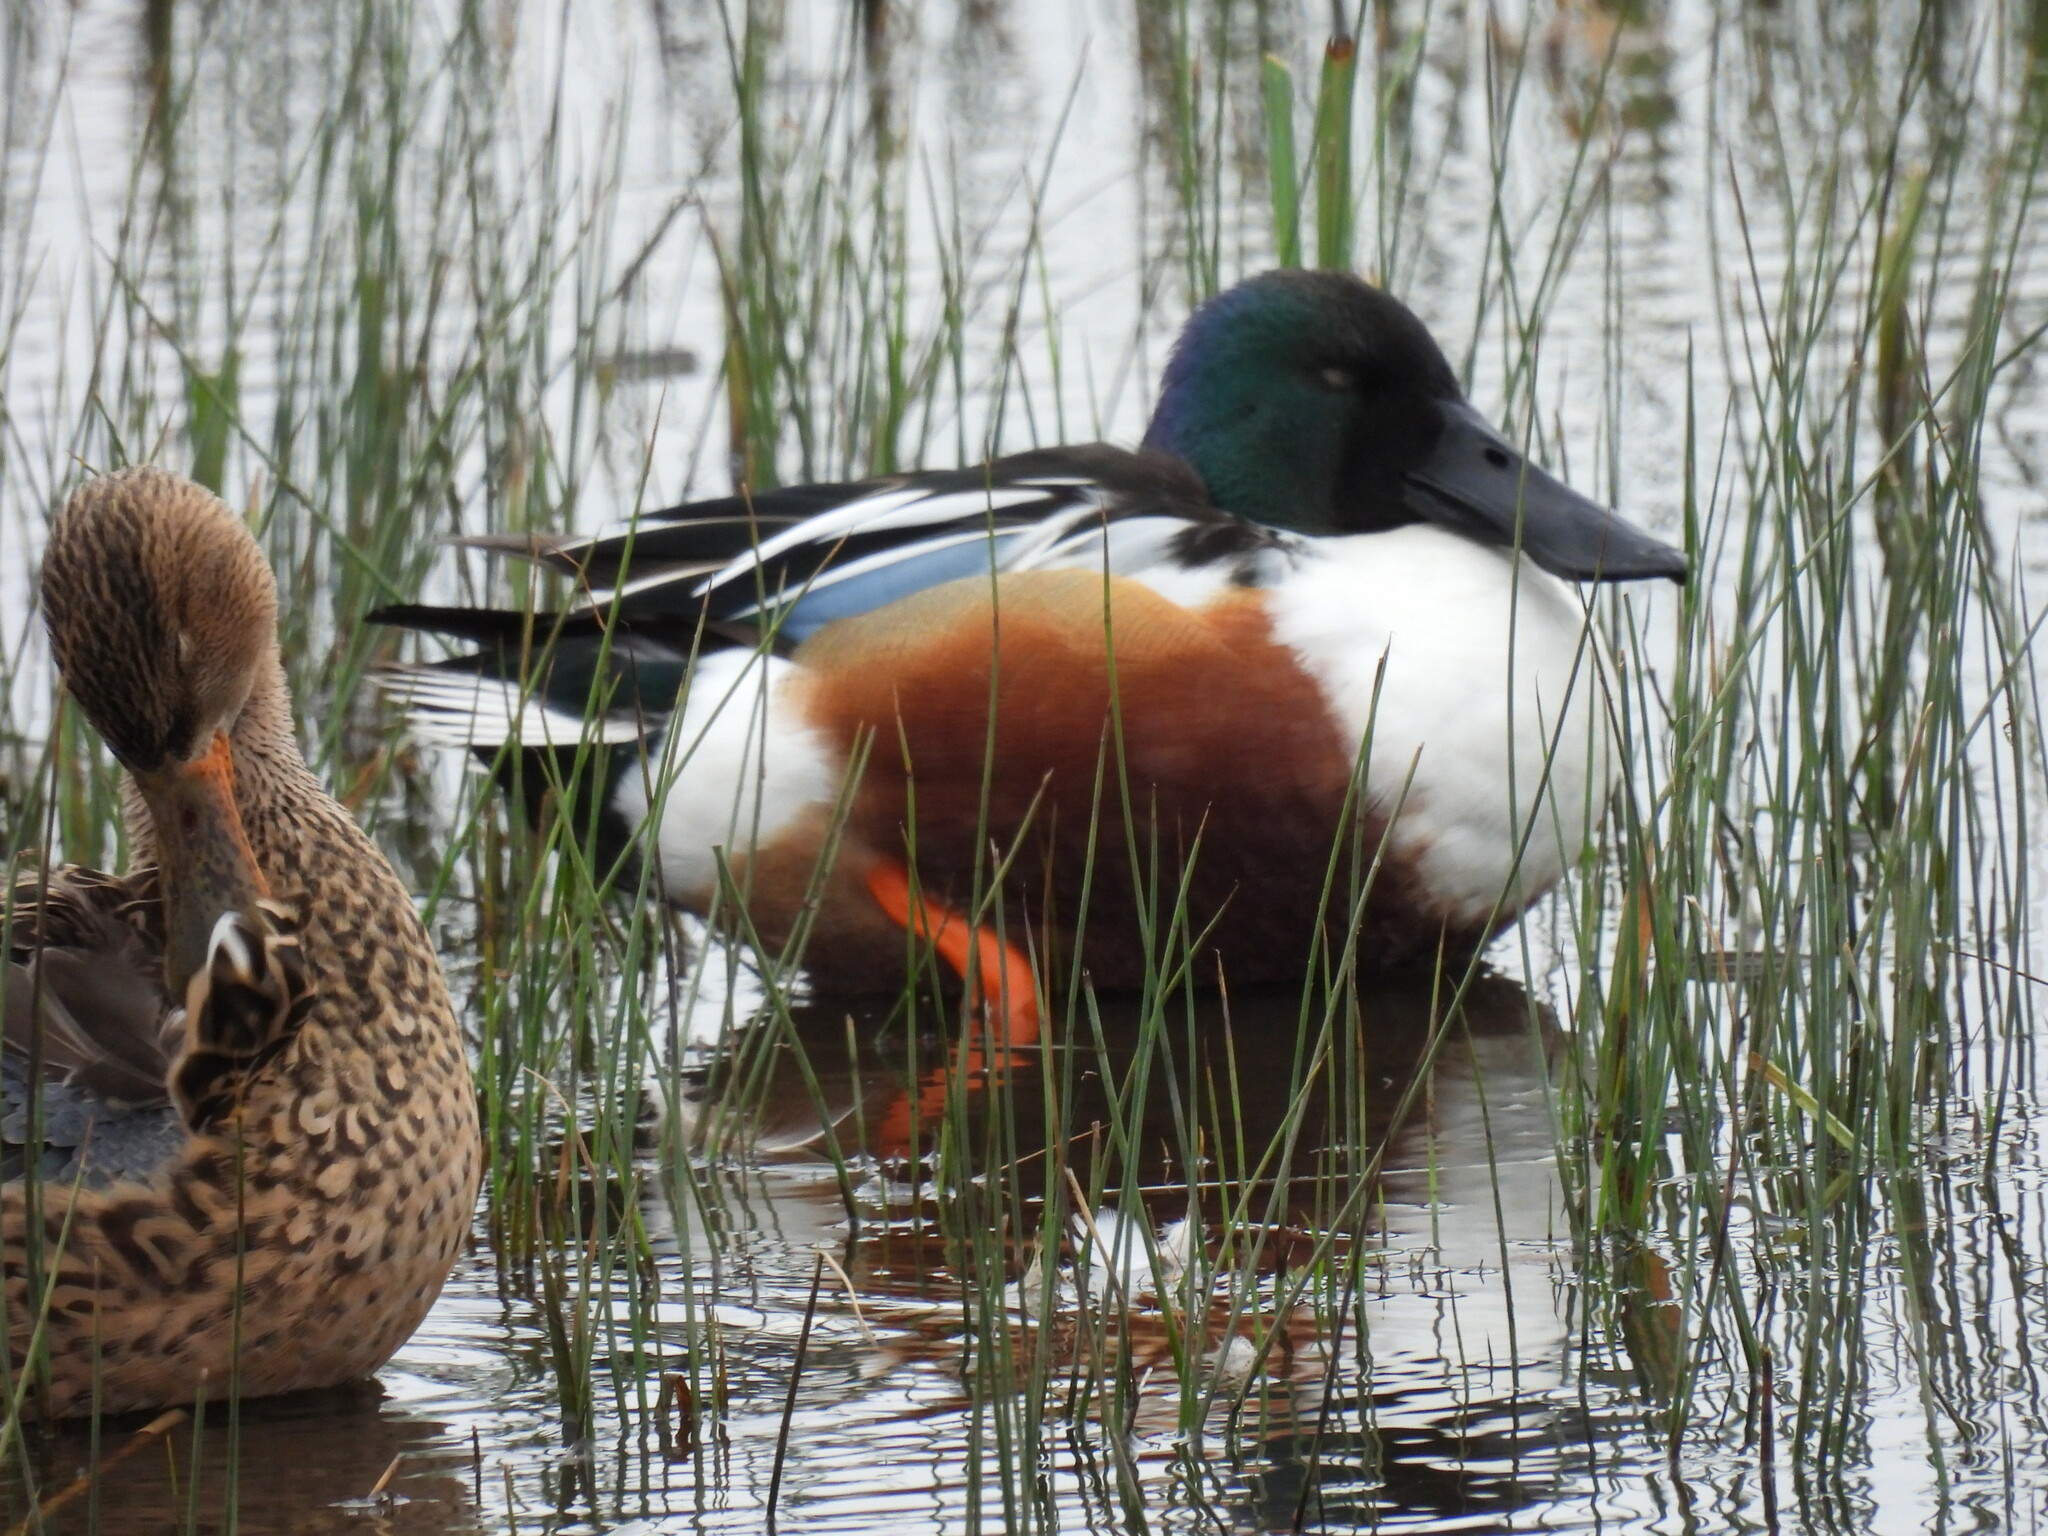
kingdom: Animalia
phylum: Chordata
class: Aves
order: Anseriformes
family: Anatidae
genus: Spatula
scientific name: Spatula clypeata
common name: Northern shoveler
